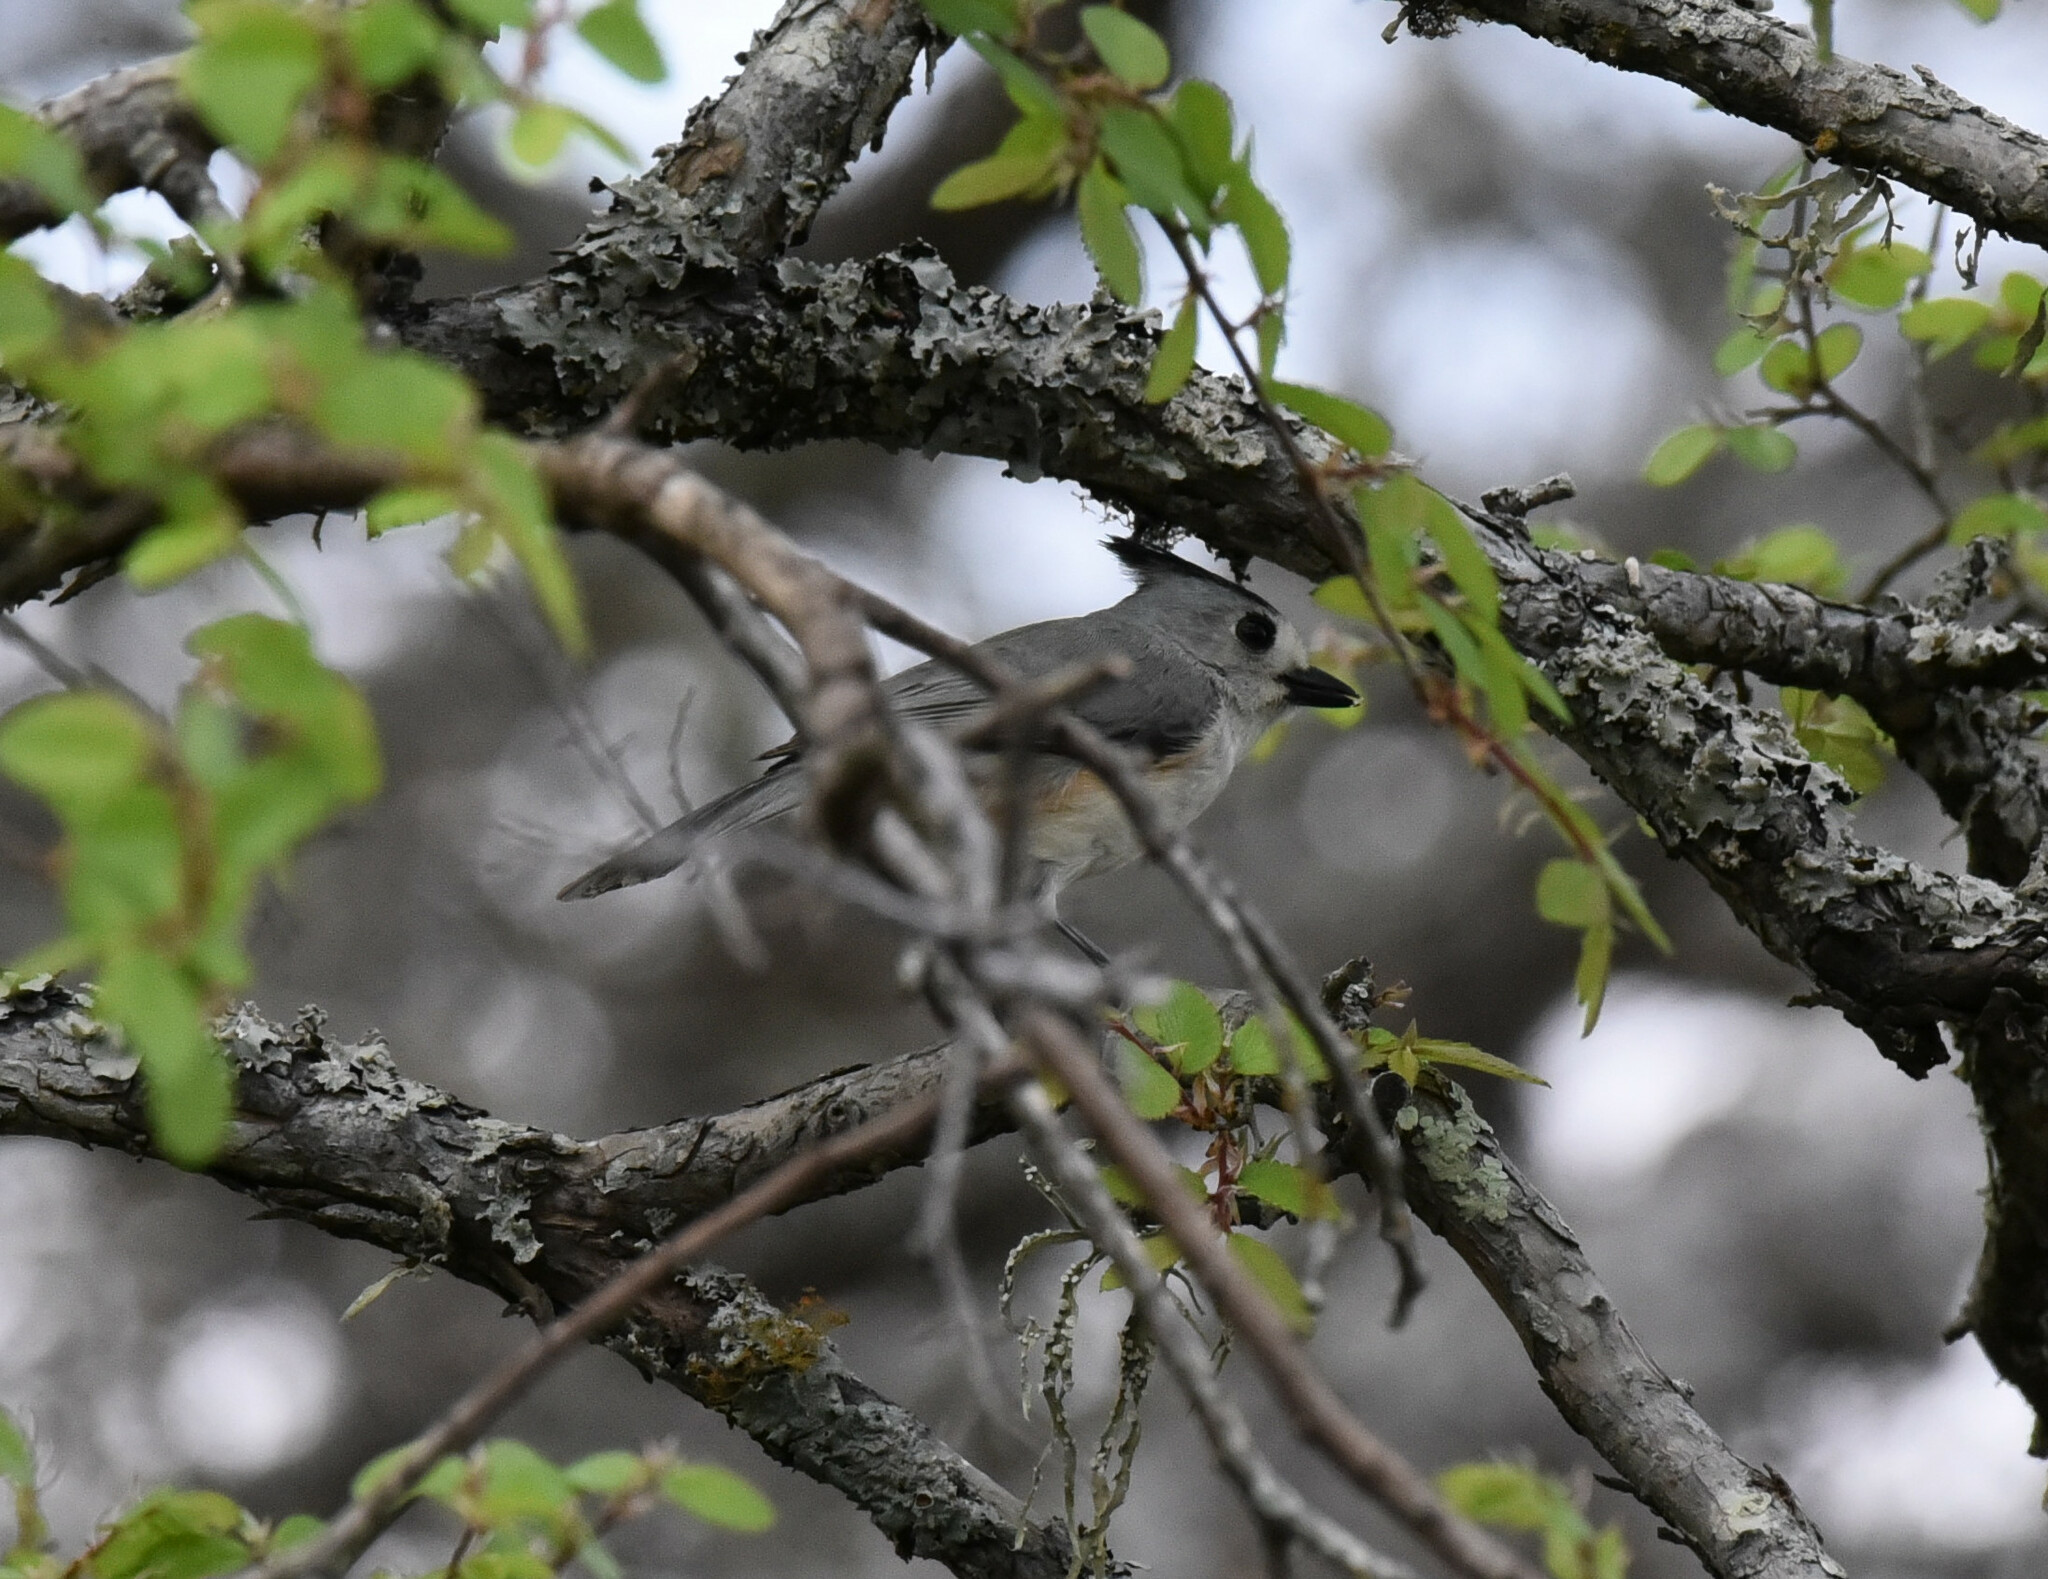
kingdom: Animalia
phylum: Chordata
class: Aves
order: Passeriformes
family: Paridae
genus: Baeolophus
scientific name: Baeolophus atricristatus
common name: Black-crested titmouse
